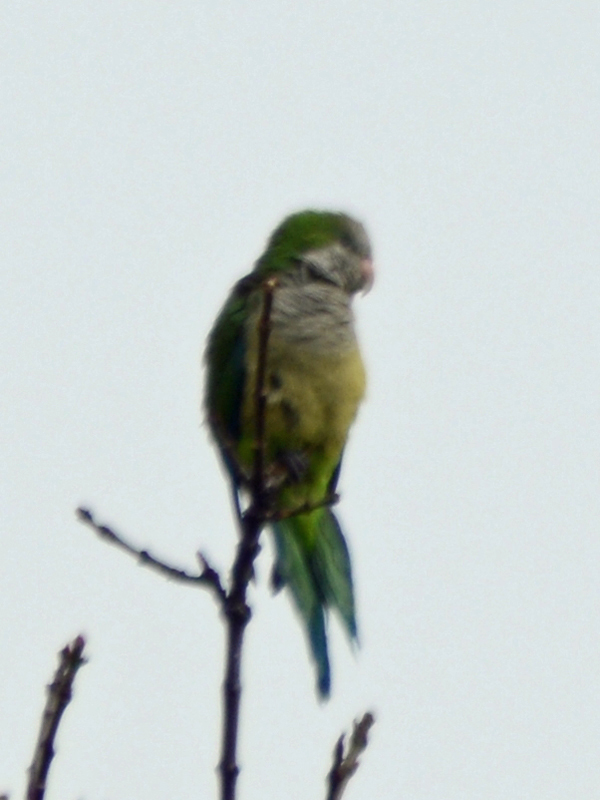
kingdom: Animalia
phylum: Chordata
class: Aves
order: Psittaciformes
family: Psittacidae
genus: Myiopsitta
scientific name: Myiopsitta monachus
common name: Monk parakeet
